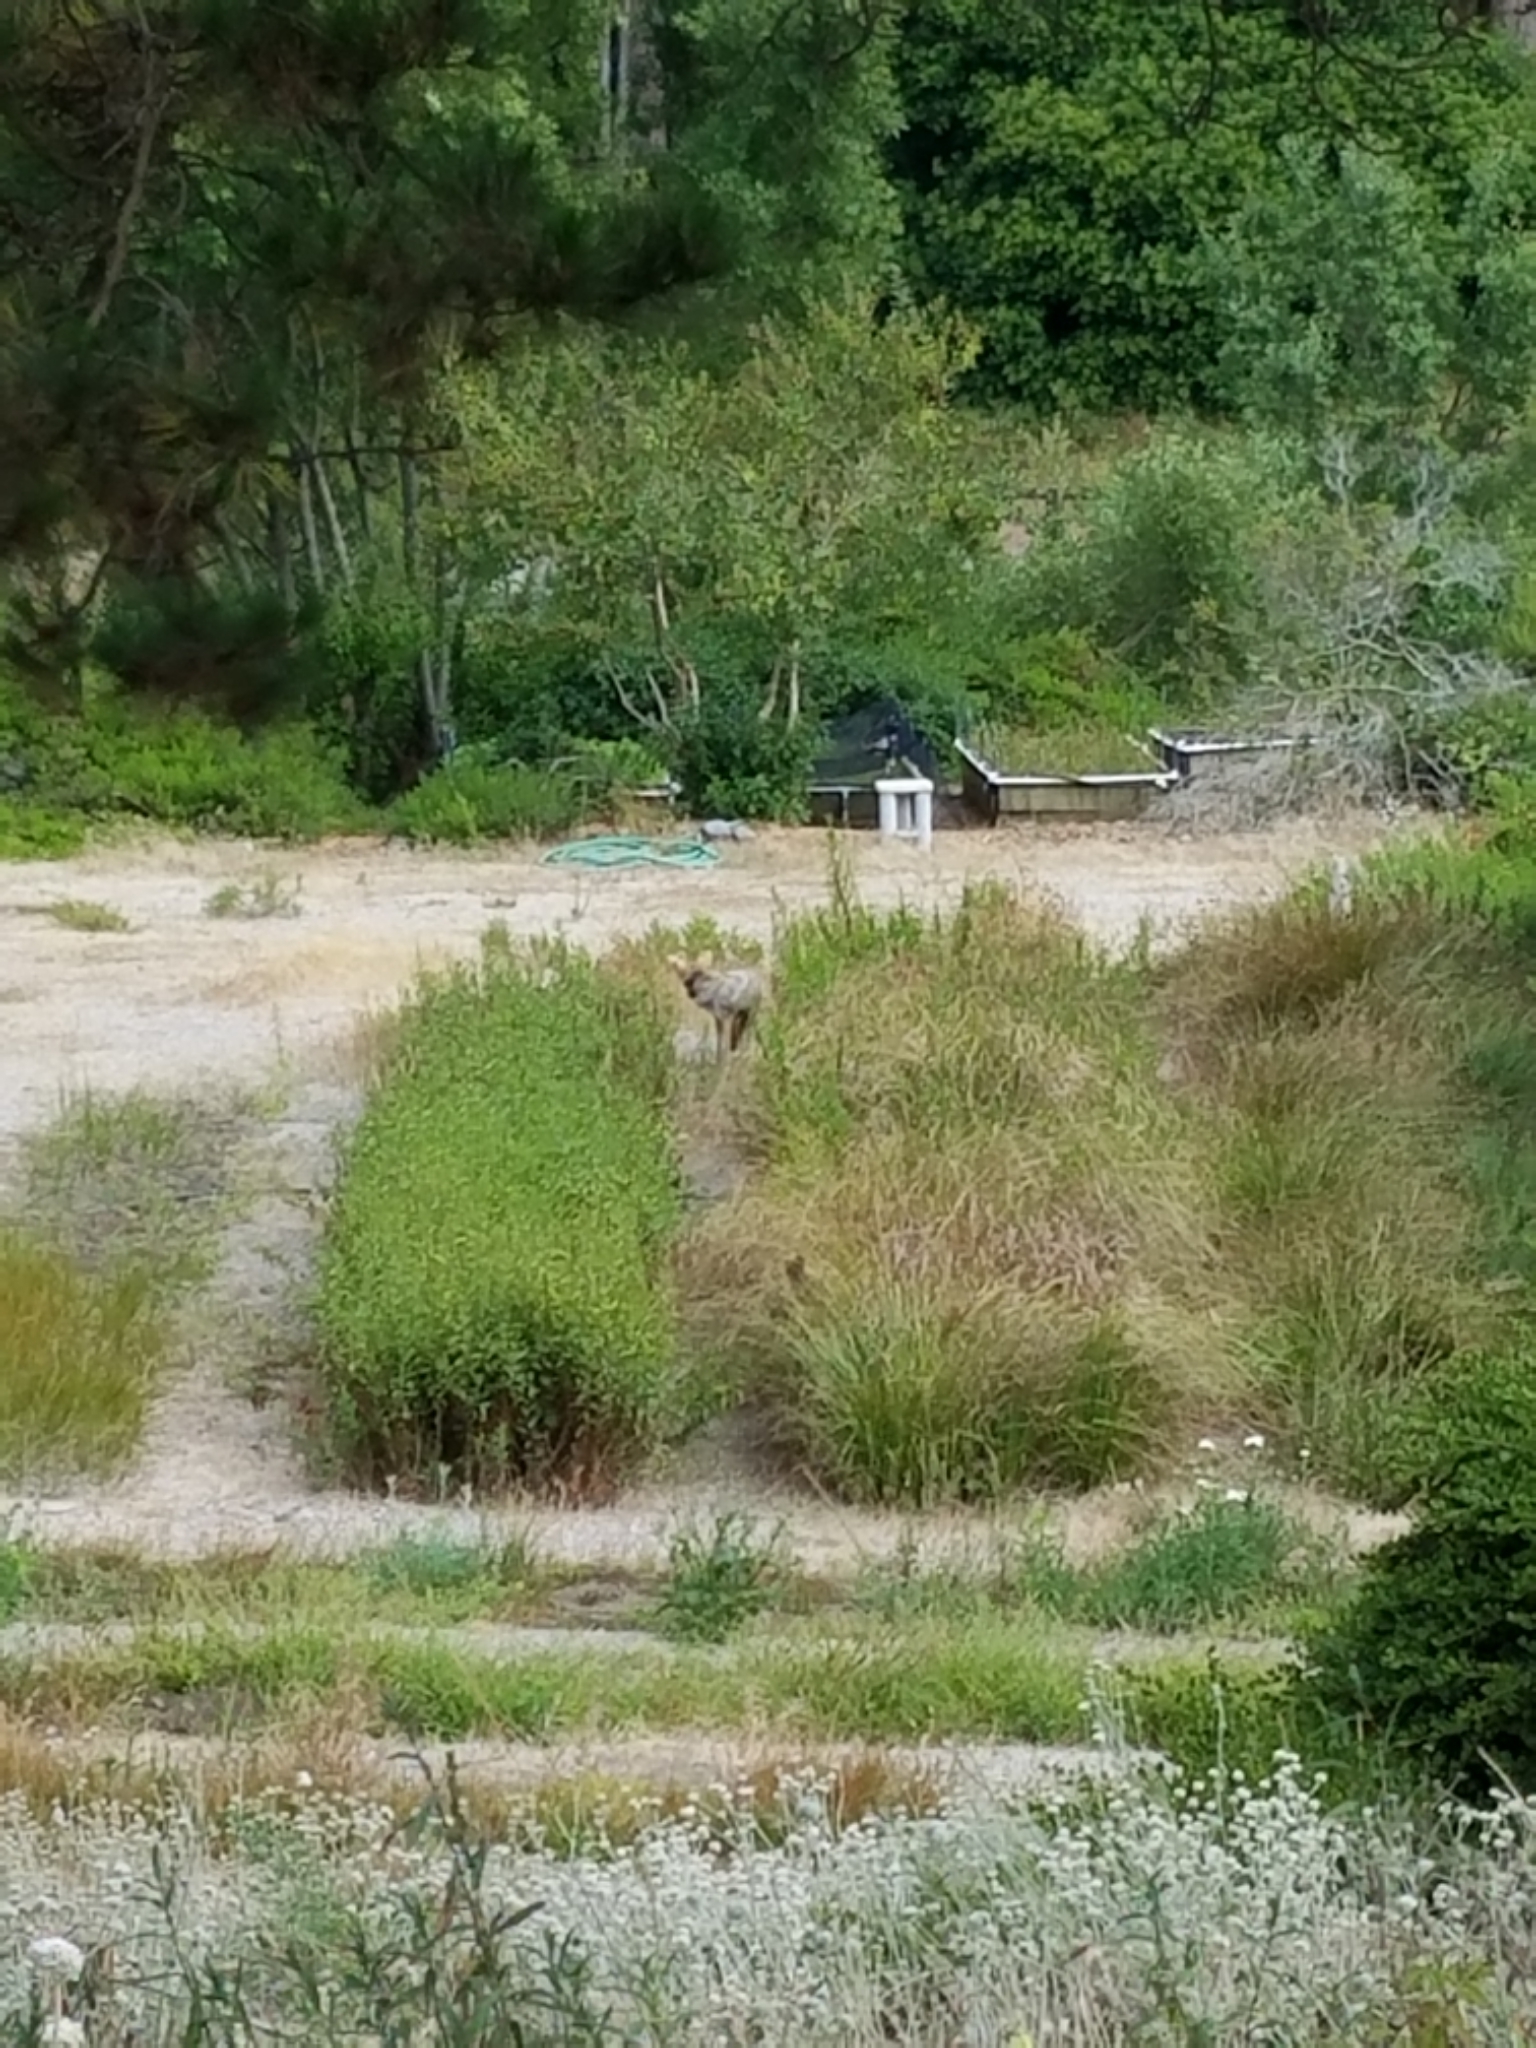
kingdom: Animalia
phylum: Chordata
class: Mammalia
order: Carnivora
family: Canidae
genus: Canis
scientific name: Canis latrans
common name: Coyote
